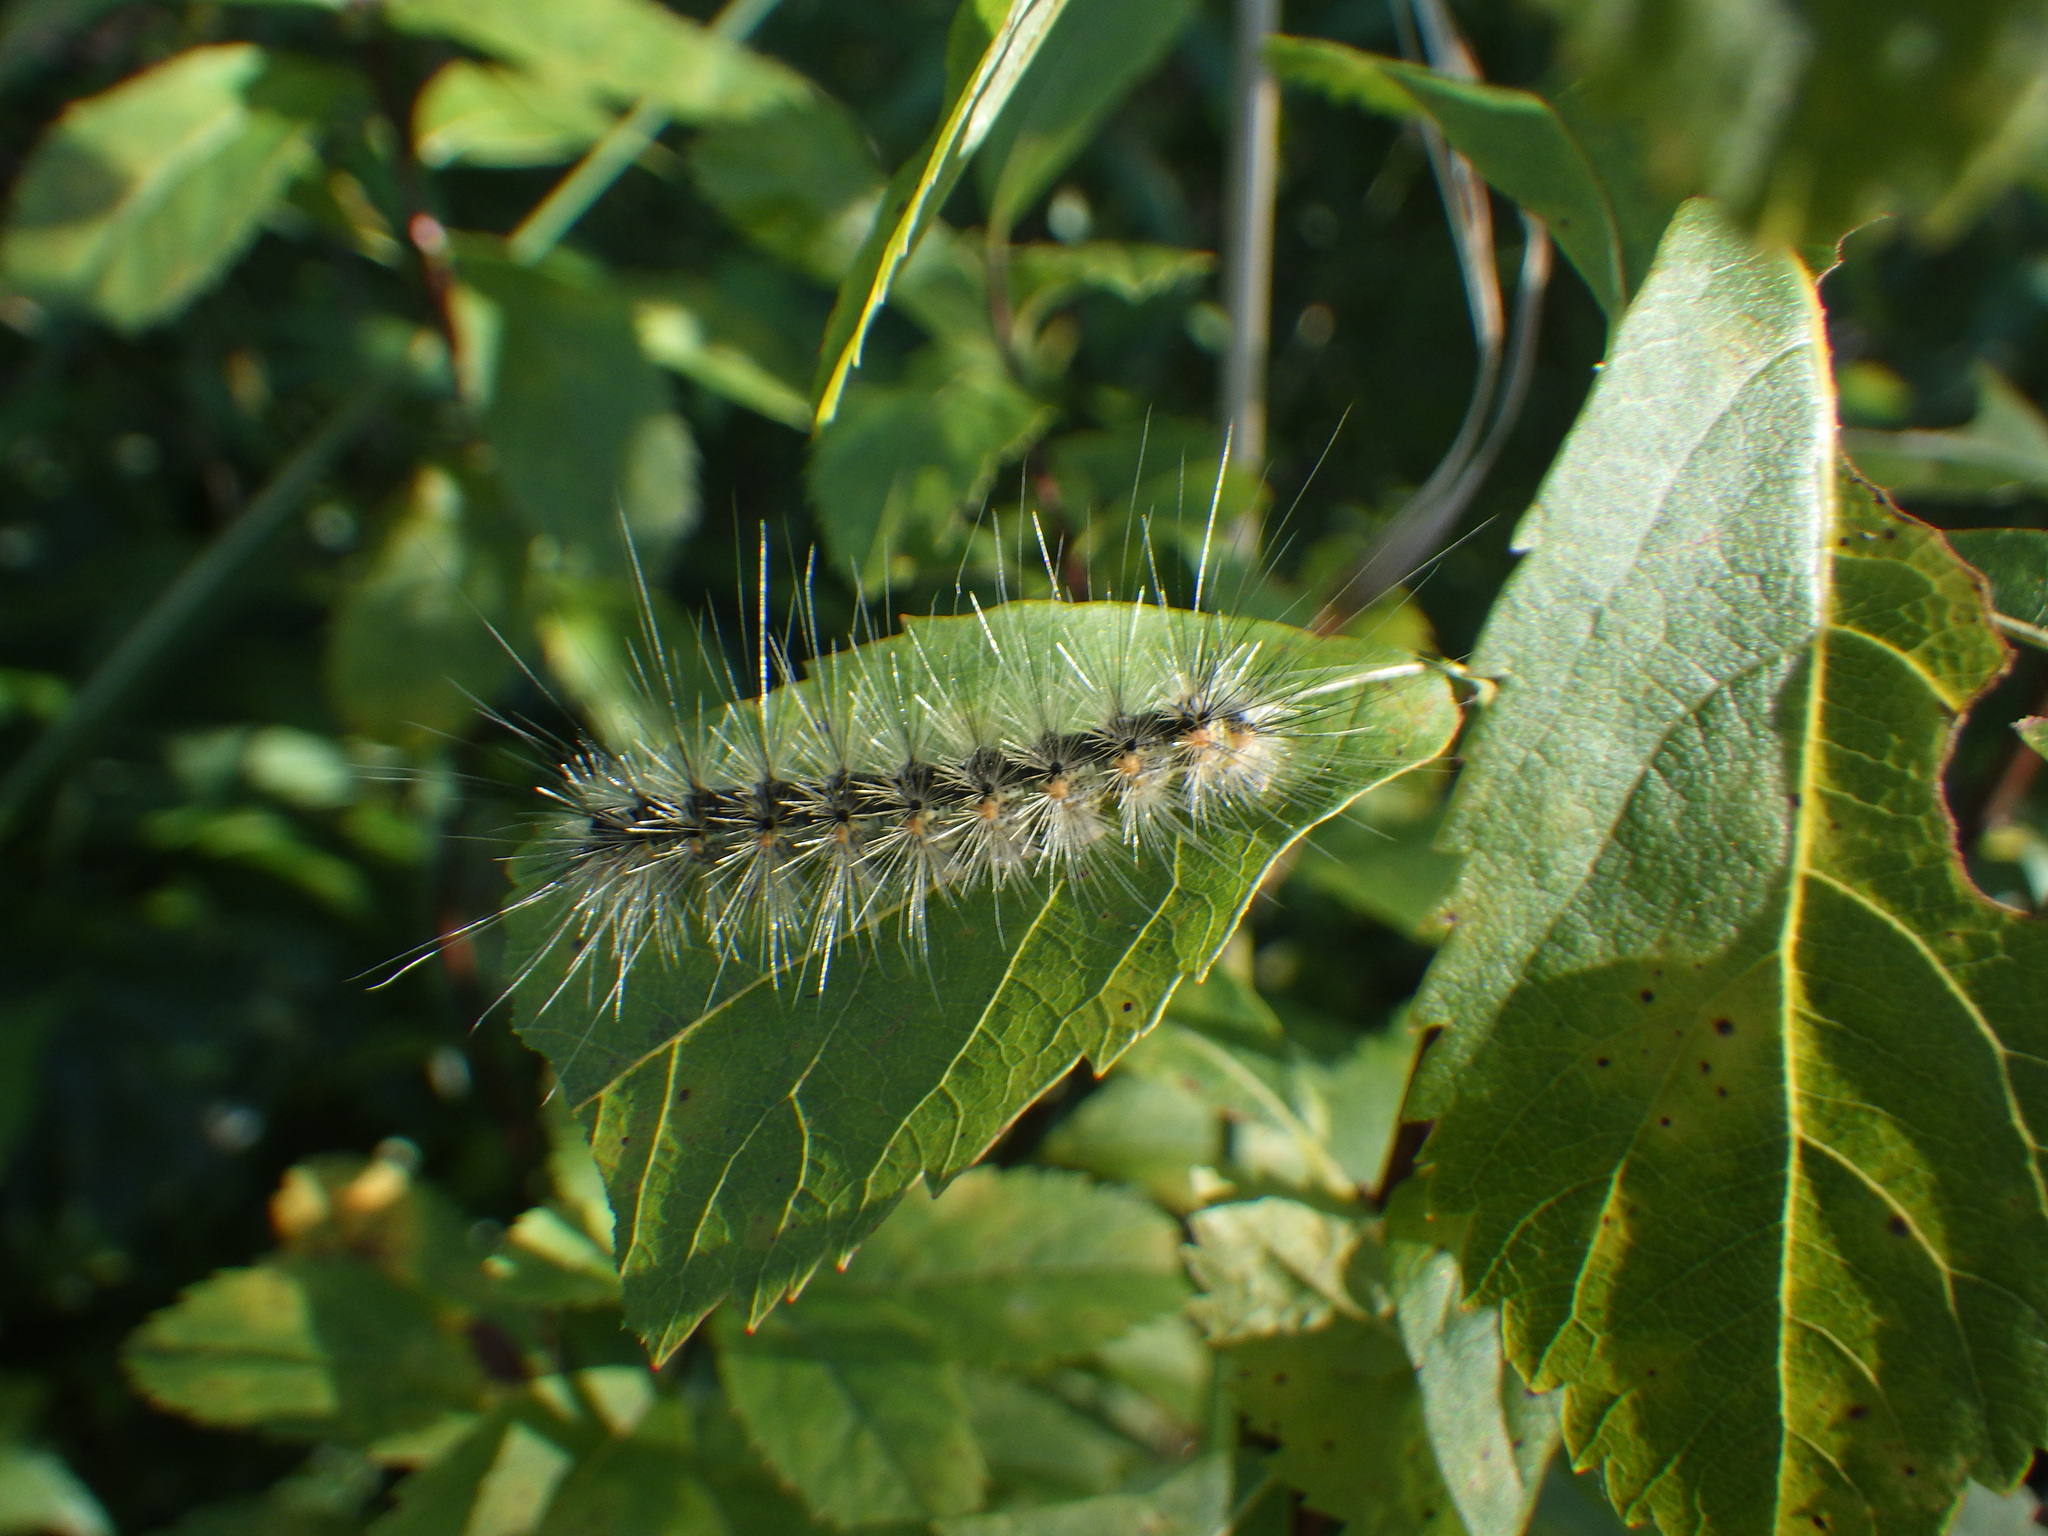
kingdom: Animalia
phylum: Arthropoda
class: Insecta
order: Lepidoptera
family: Erebidae
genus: Hyphantria
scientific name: Hyphantria cunea
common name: American white moth
